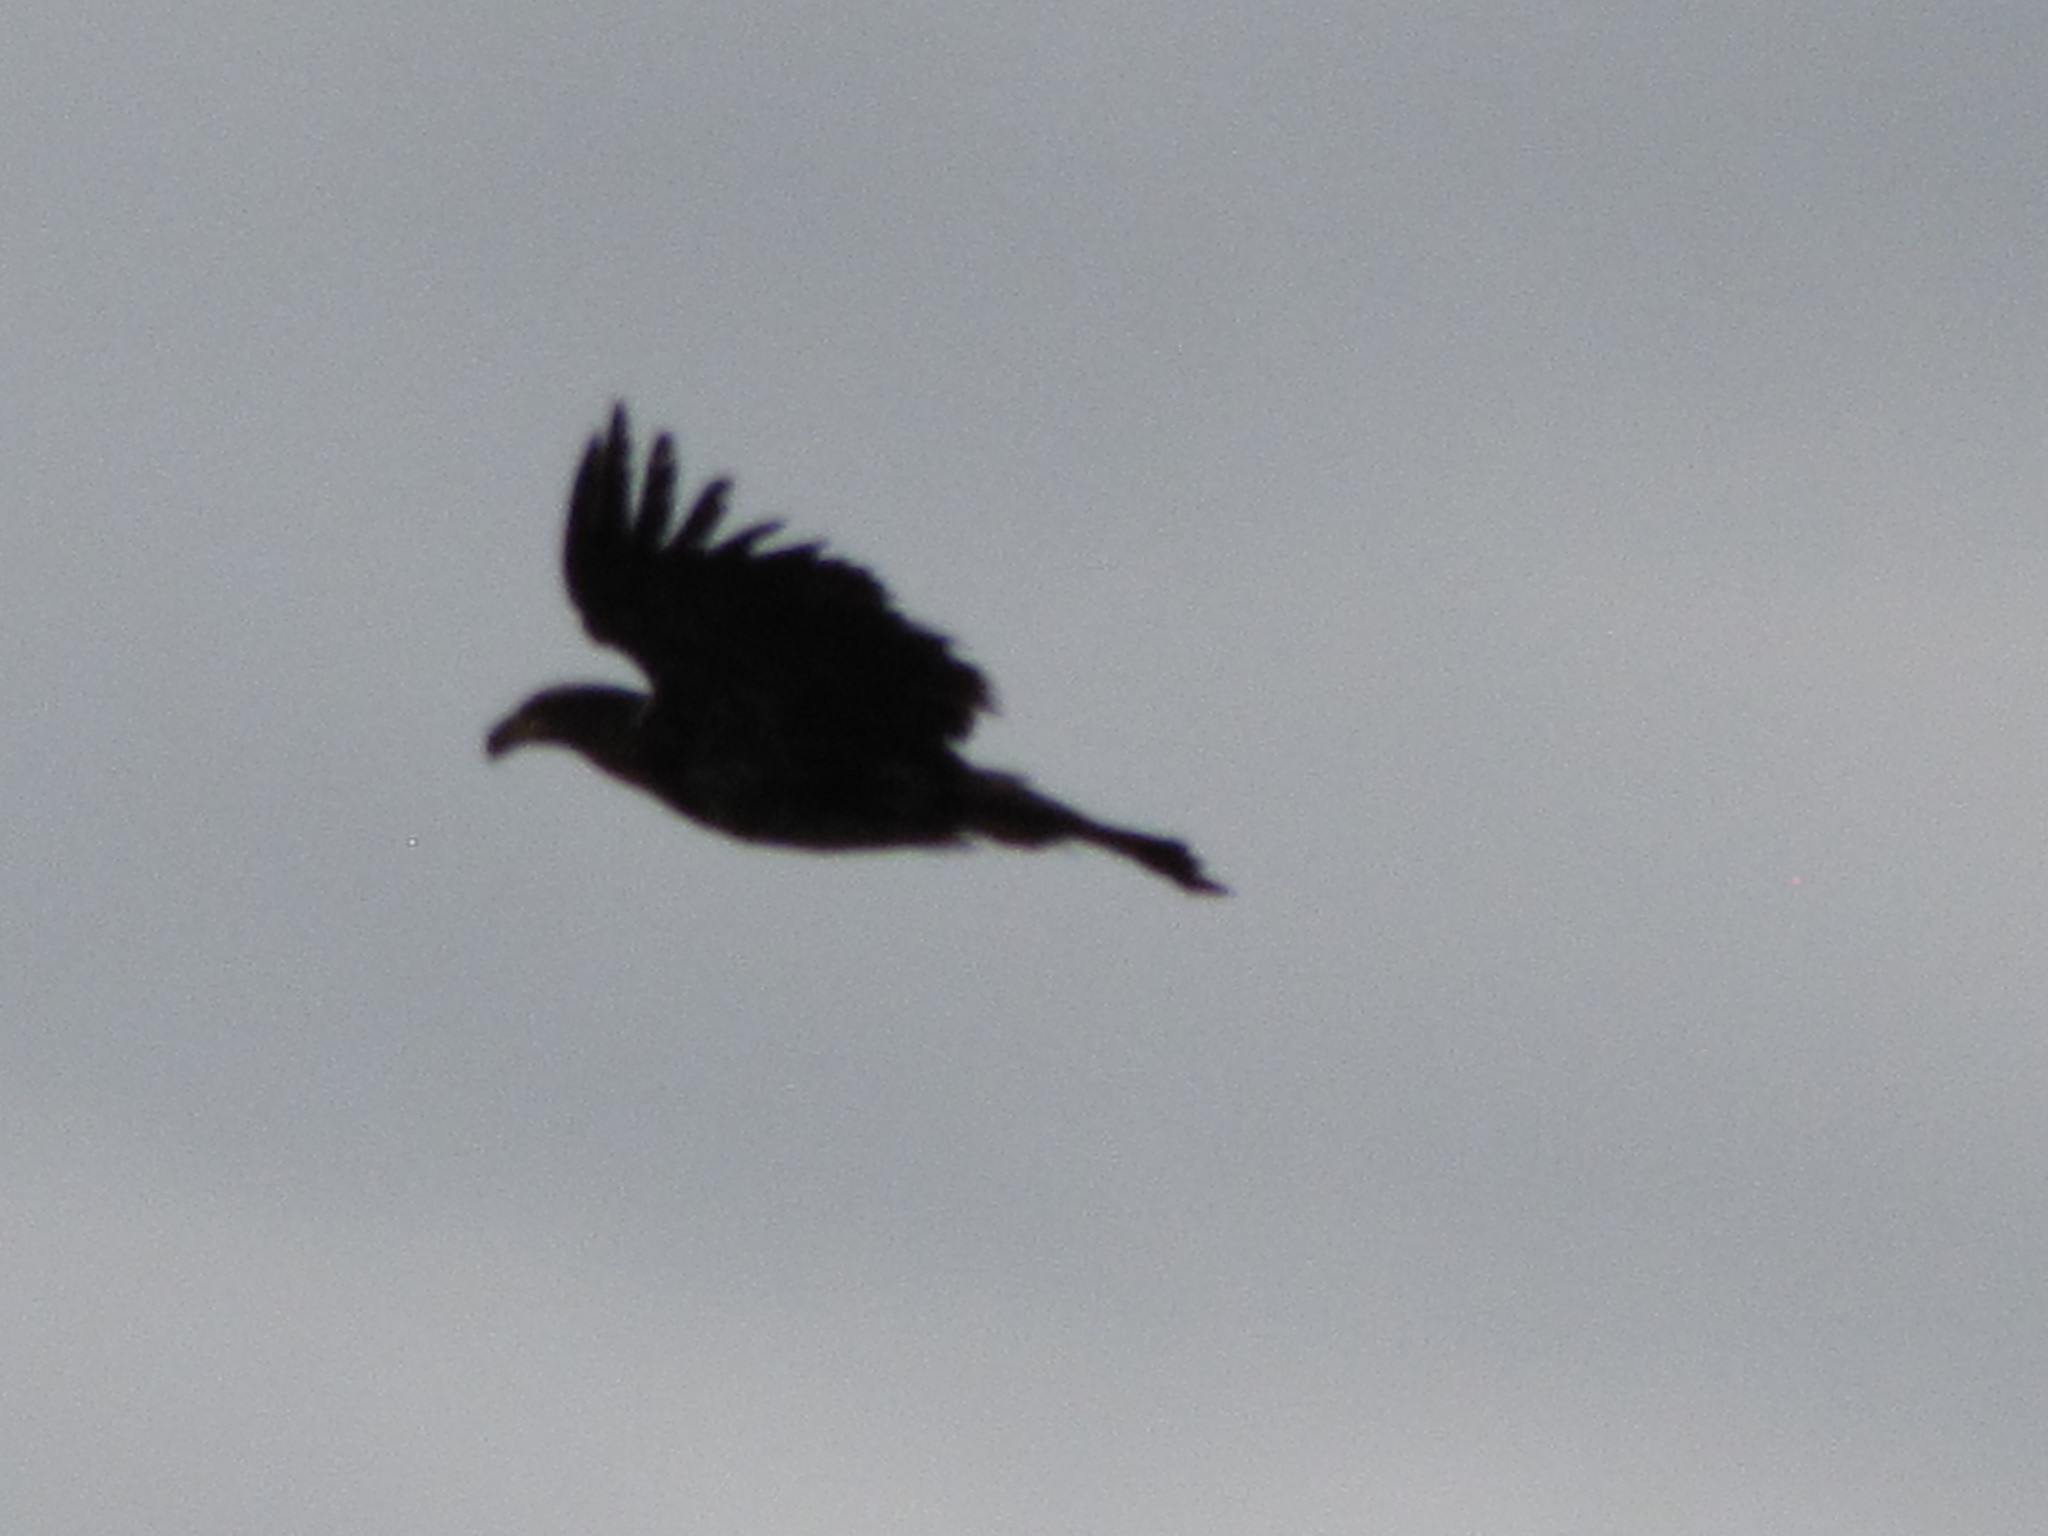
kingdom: Animalia
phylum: Chordata
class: Aves
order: Accipitriformes
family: Accipitridae
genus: Haliaeetus
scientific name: Haliaeetus leucocephalus
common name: Bald eagle
